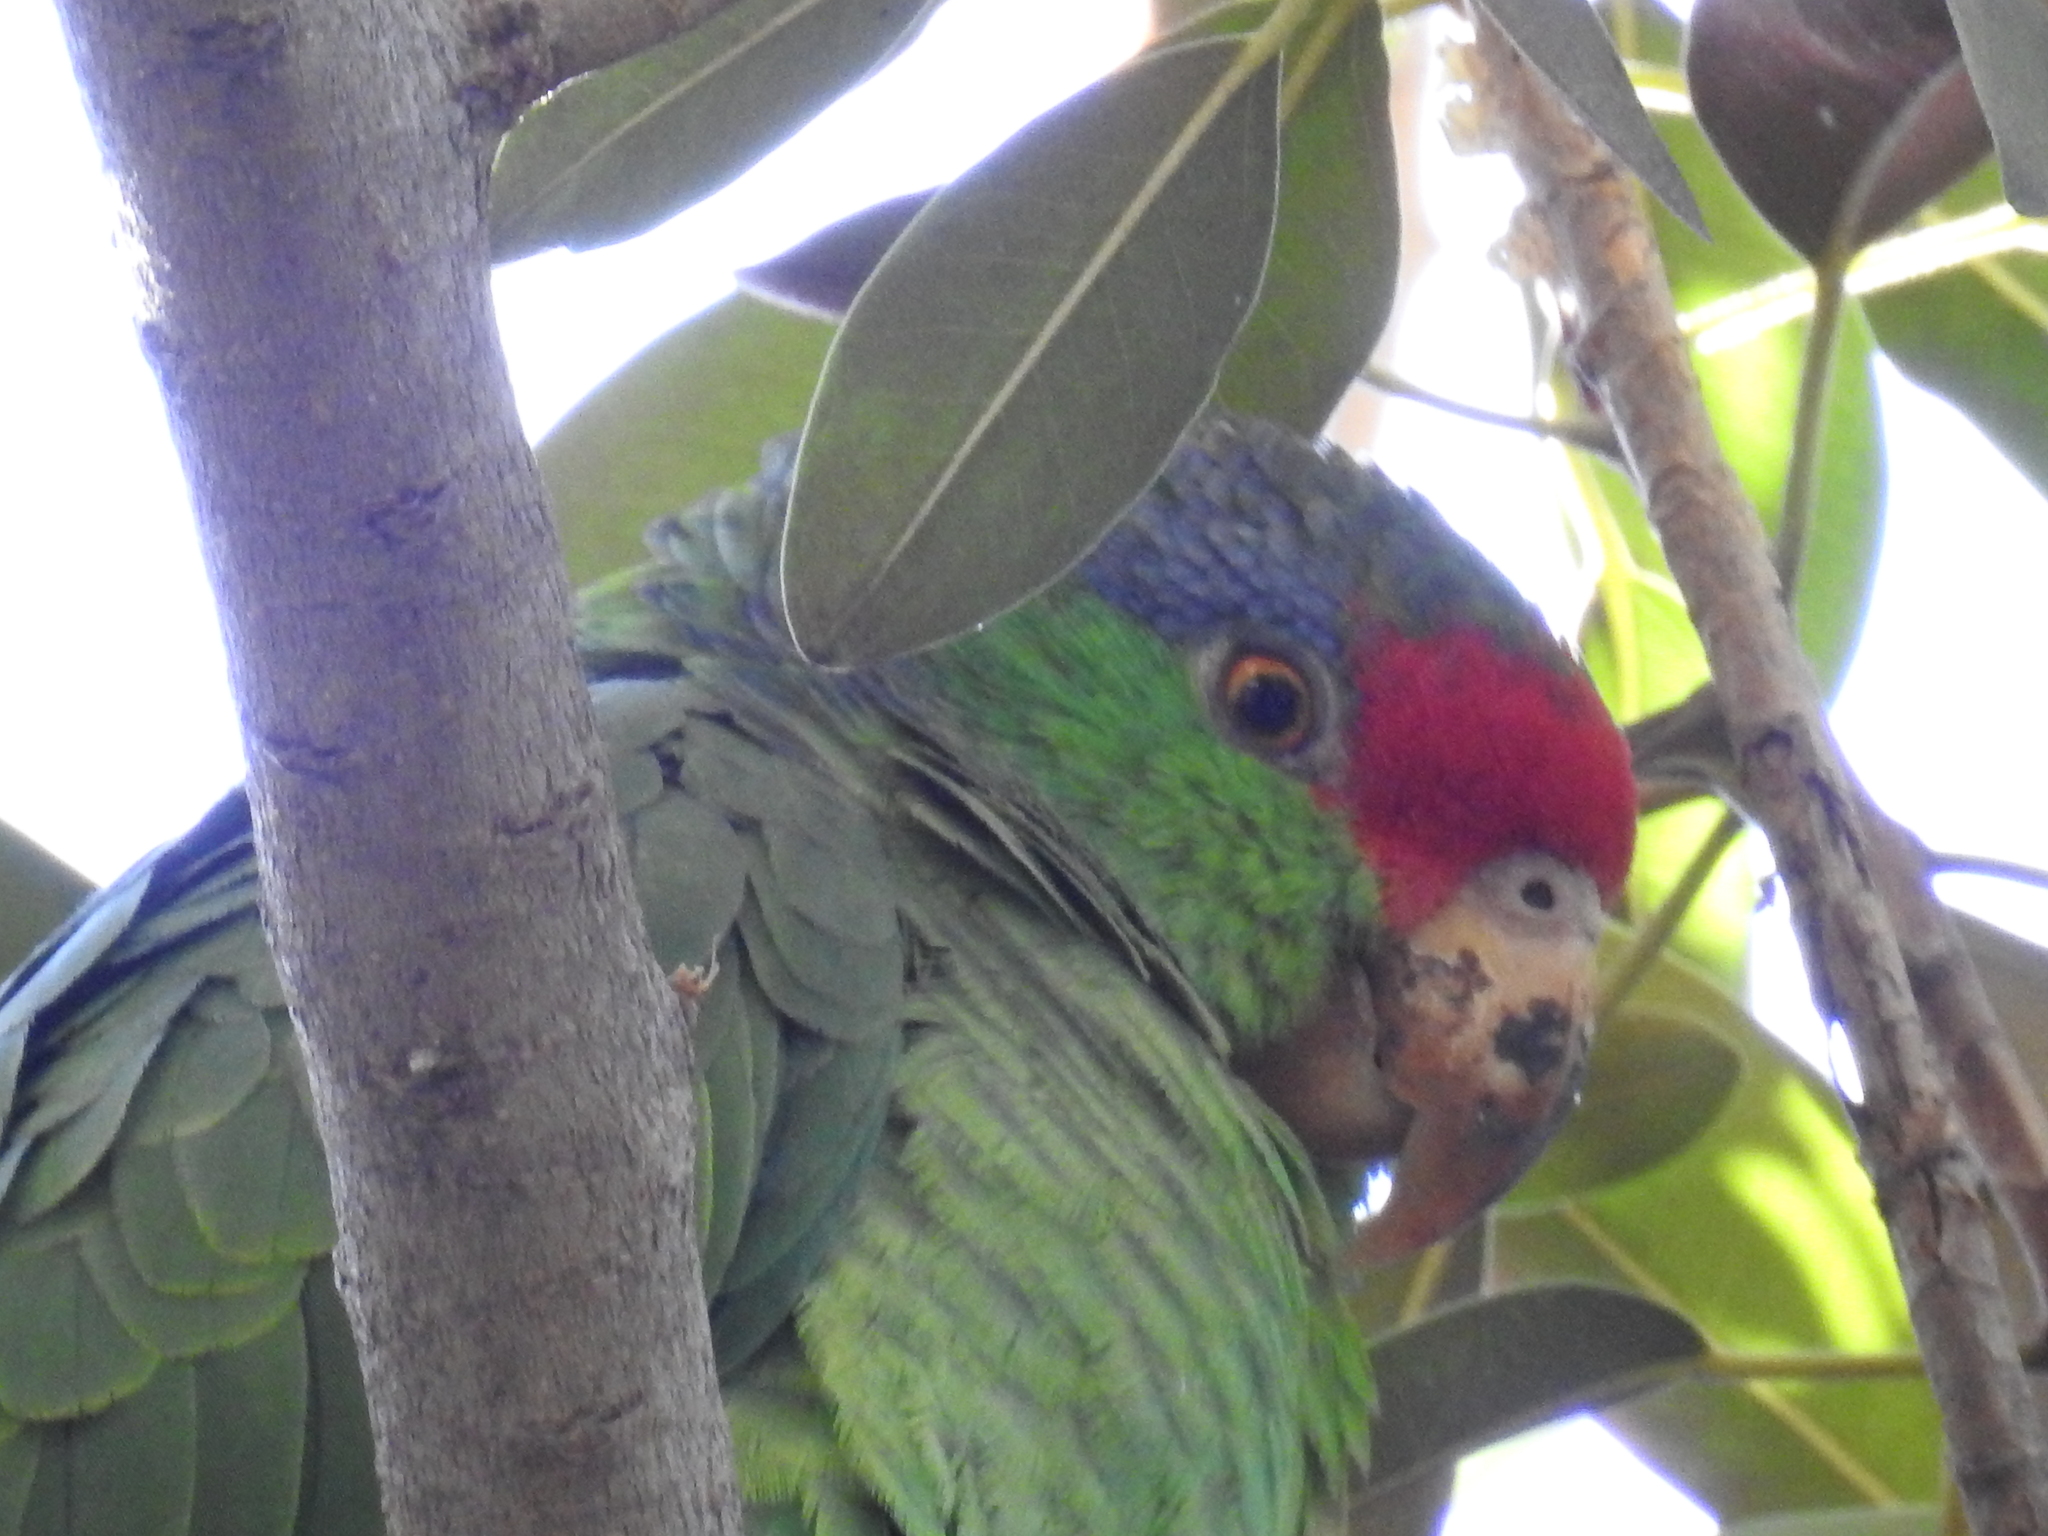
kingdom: Animalia
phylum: Chordata
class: Aves
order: Psittaciformes
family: Psittacidae
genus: Amazona
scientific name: Amazona viridigenalis
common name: Red-crowned amazon
